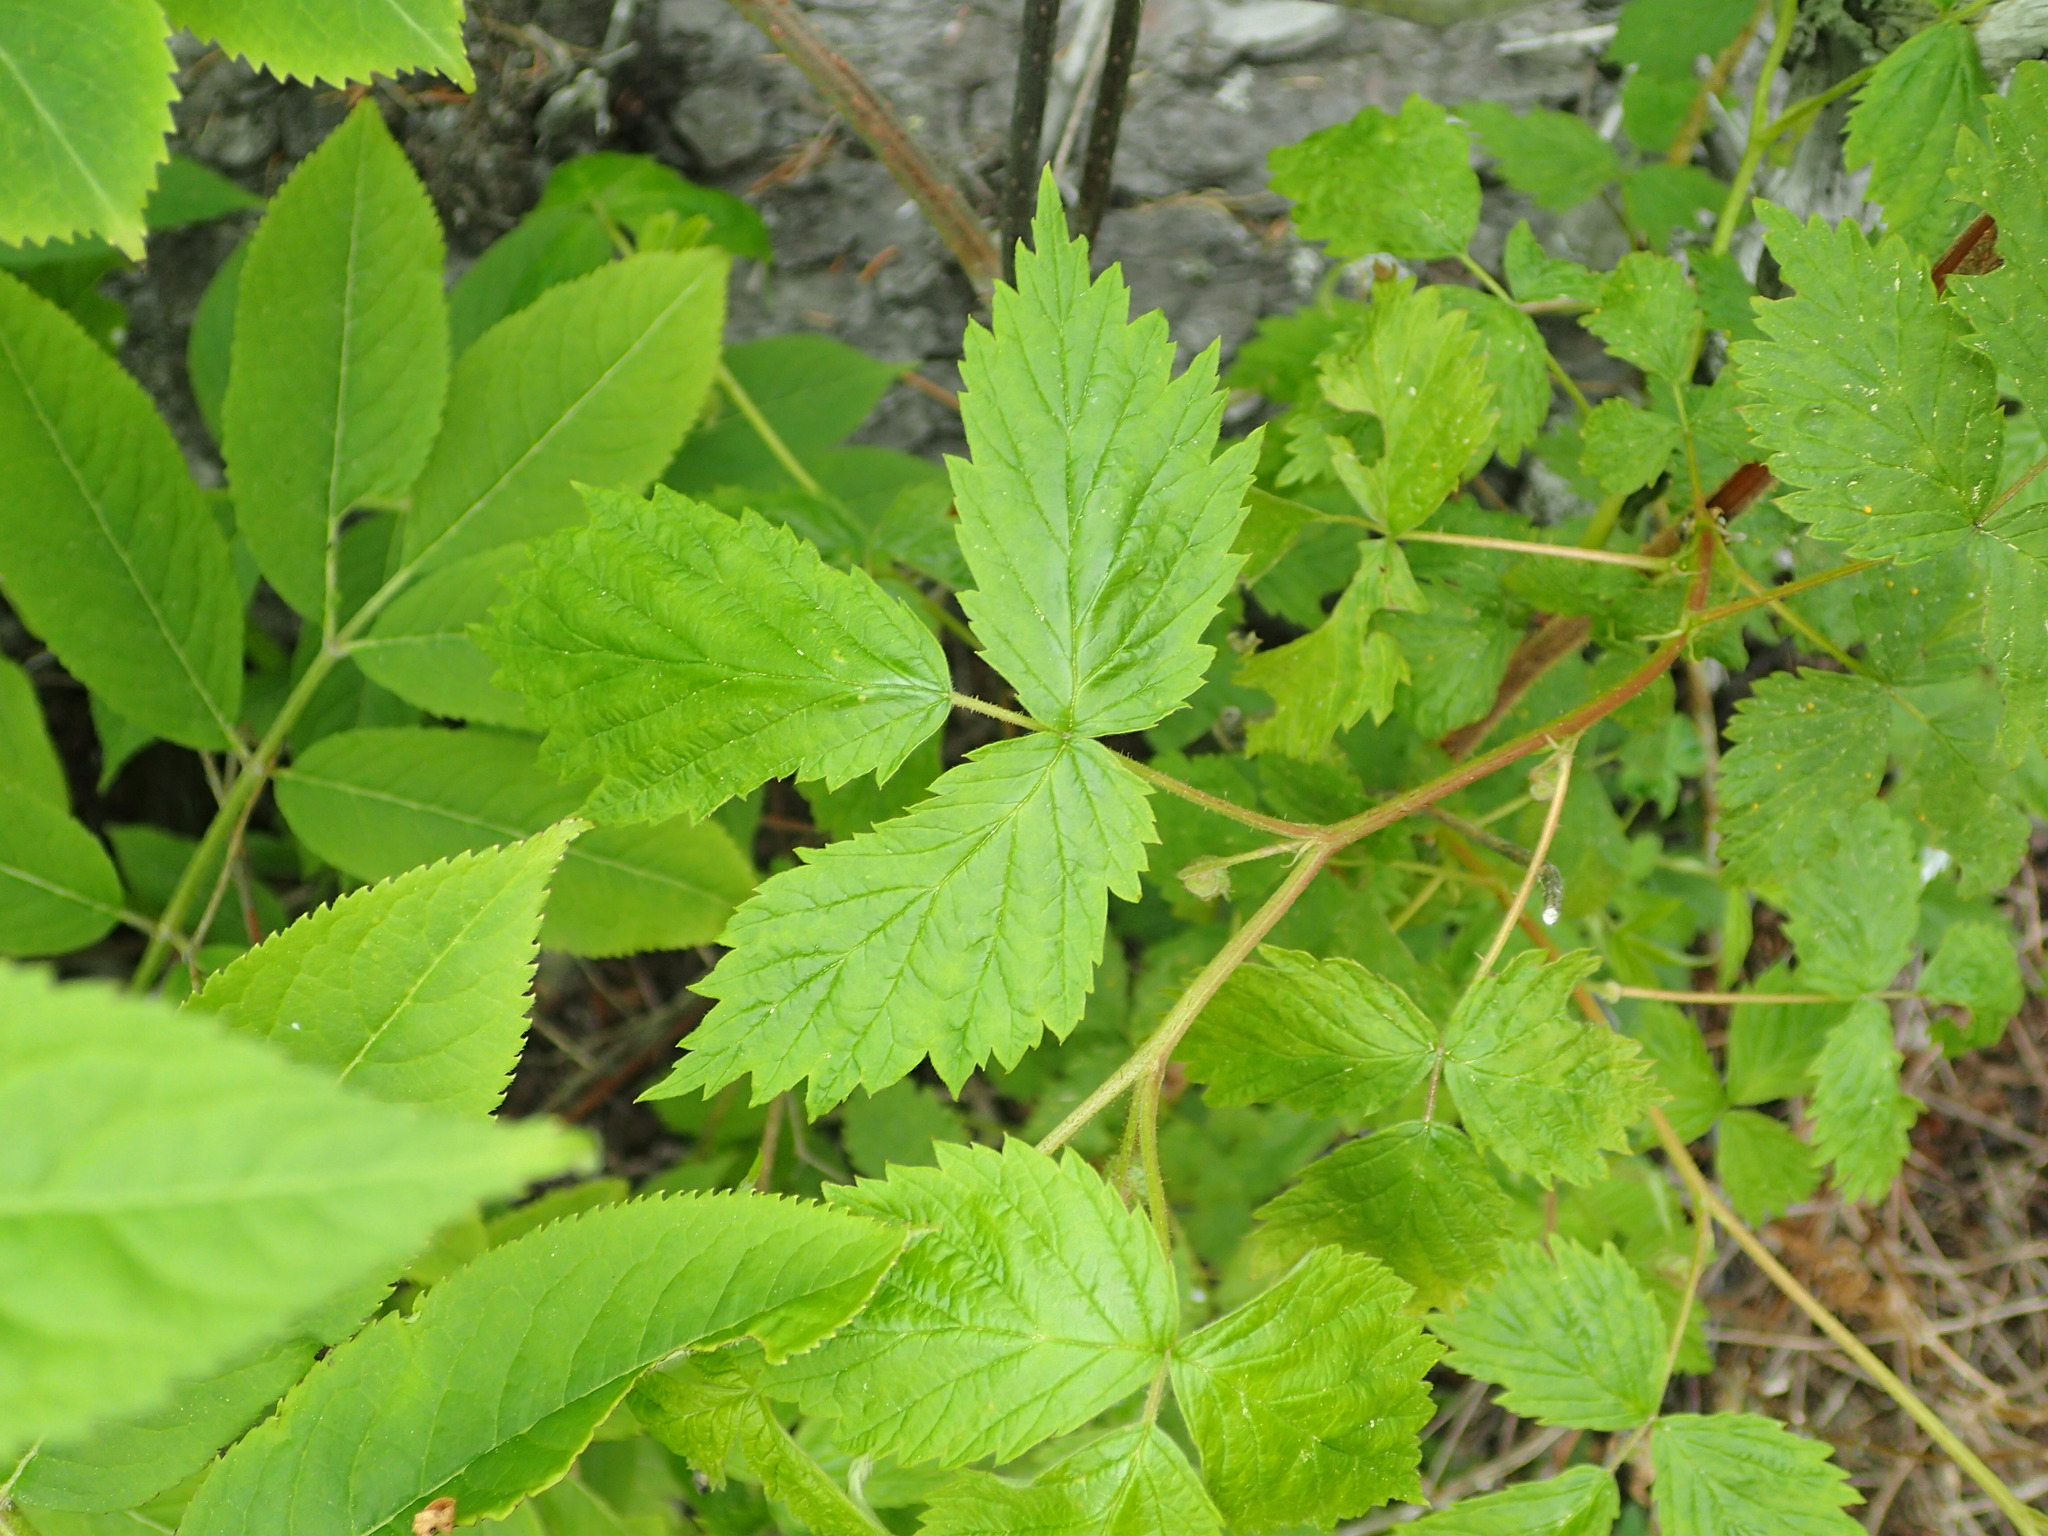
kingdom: Plantae
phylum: Tracheophyta
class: Magnoliopsida
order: Rosales
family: Rosaceae
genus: Rubus
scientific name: Rubus idaeus
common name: Raspberry
